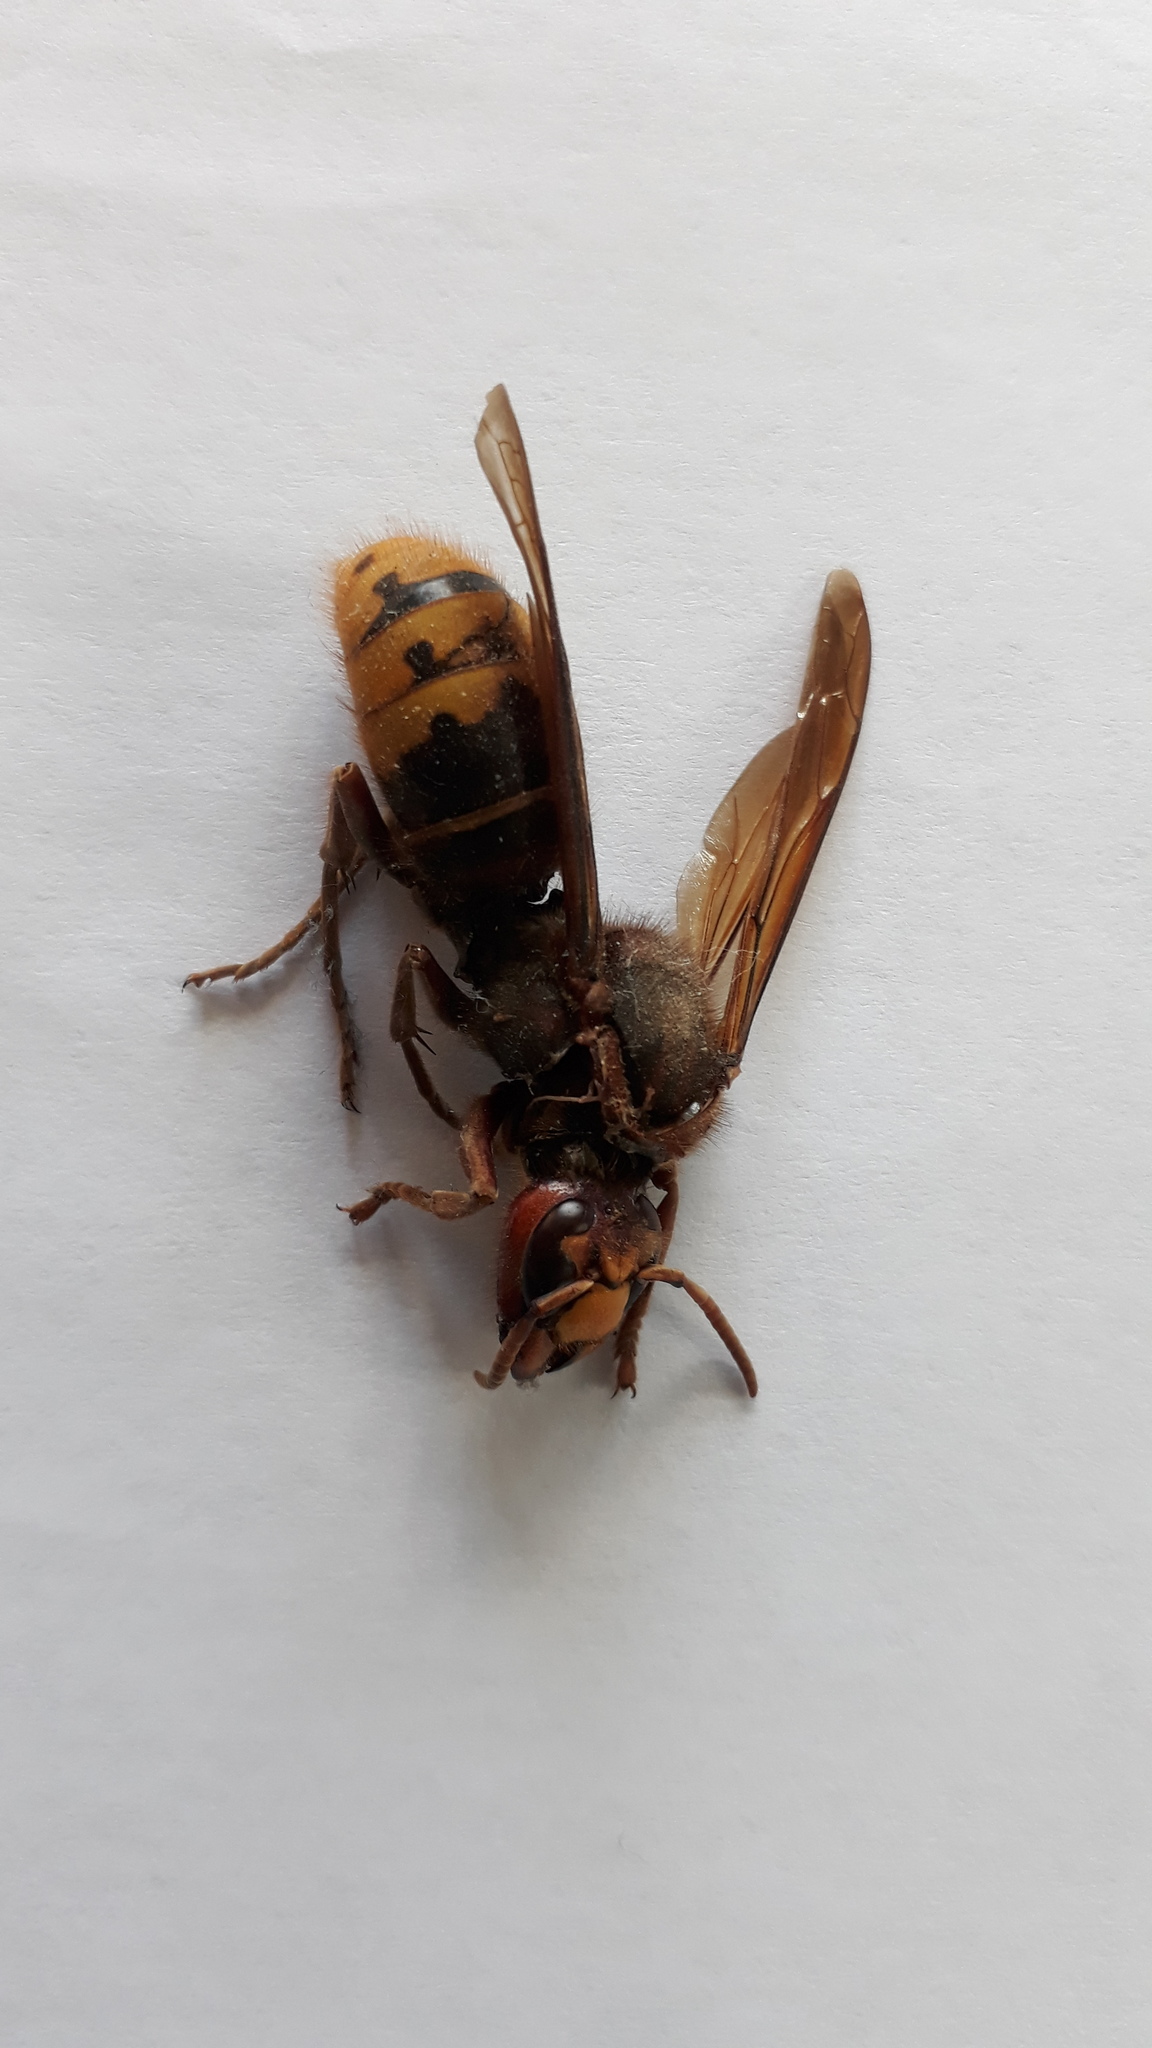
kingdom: Animalia
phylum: Arthropoda
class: Insecta
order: Hymenoptera
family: Vespidae
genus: Vespa
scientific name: Vespa crabro
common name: Hornet
